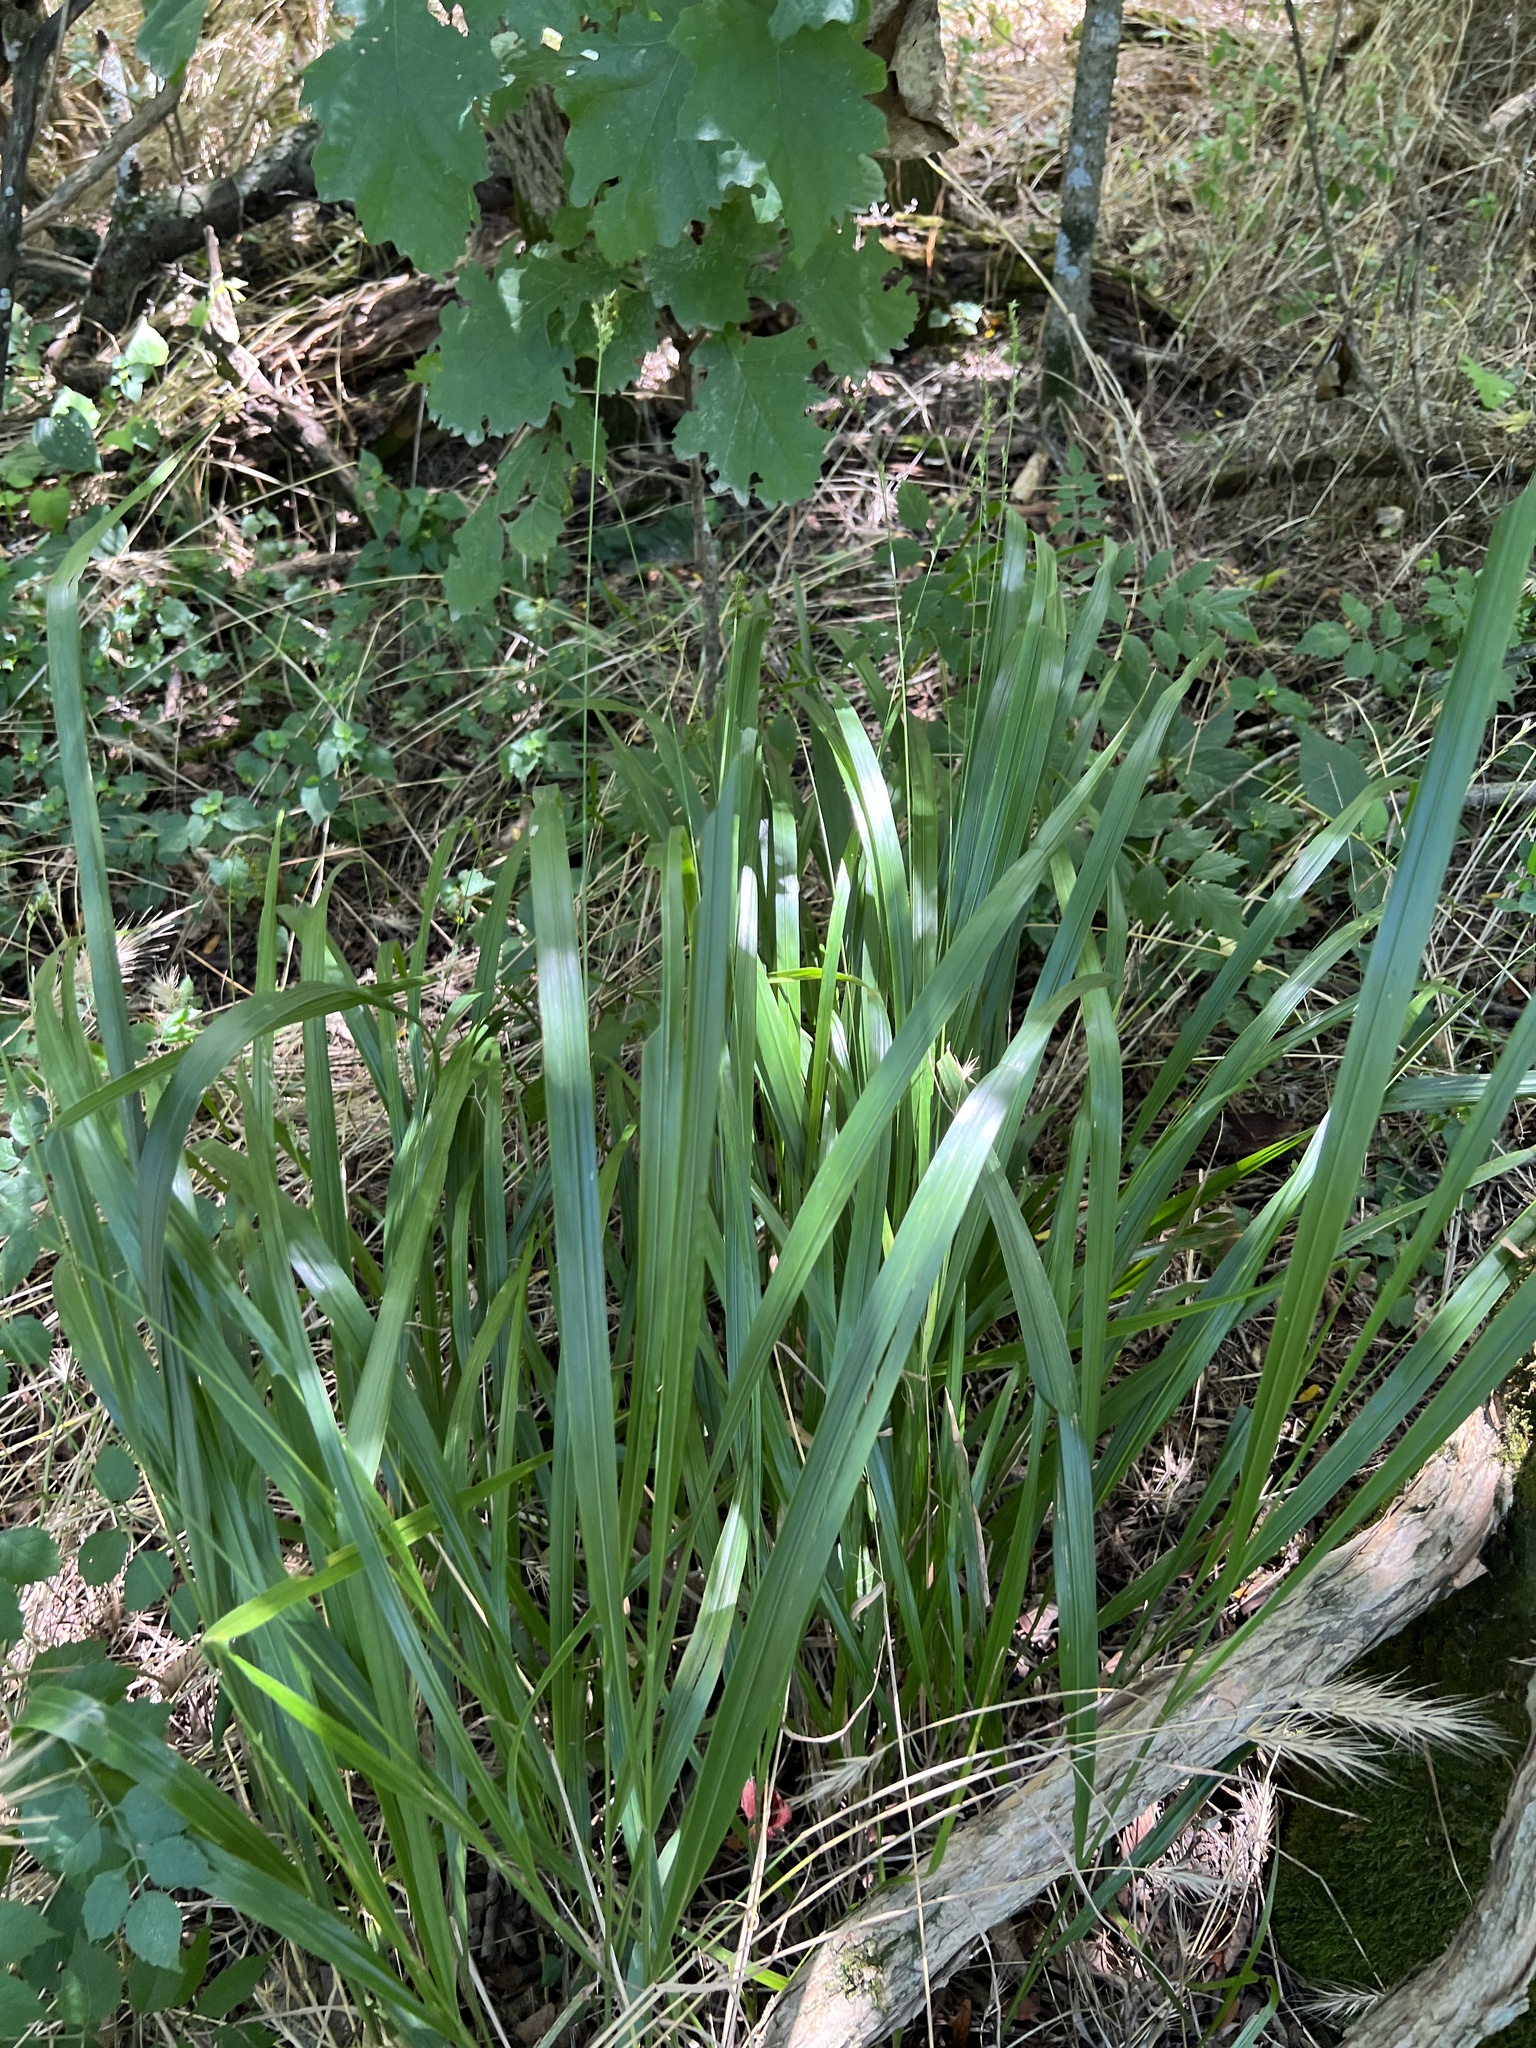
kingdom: Plantae
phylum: Tracheophyta
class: Liliopsida
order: Poales
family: Poaceae
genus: Diarrhena
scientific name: Diarrhena obovata
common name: Beakgrass
